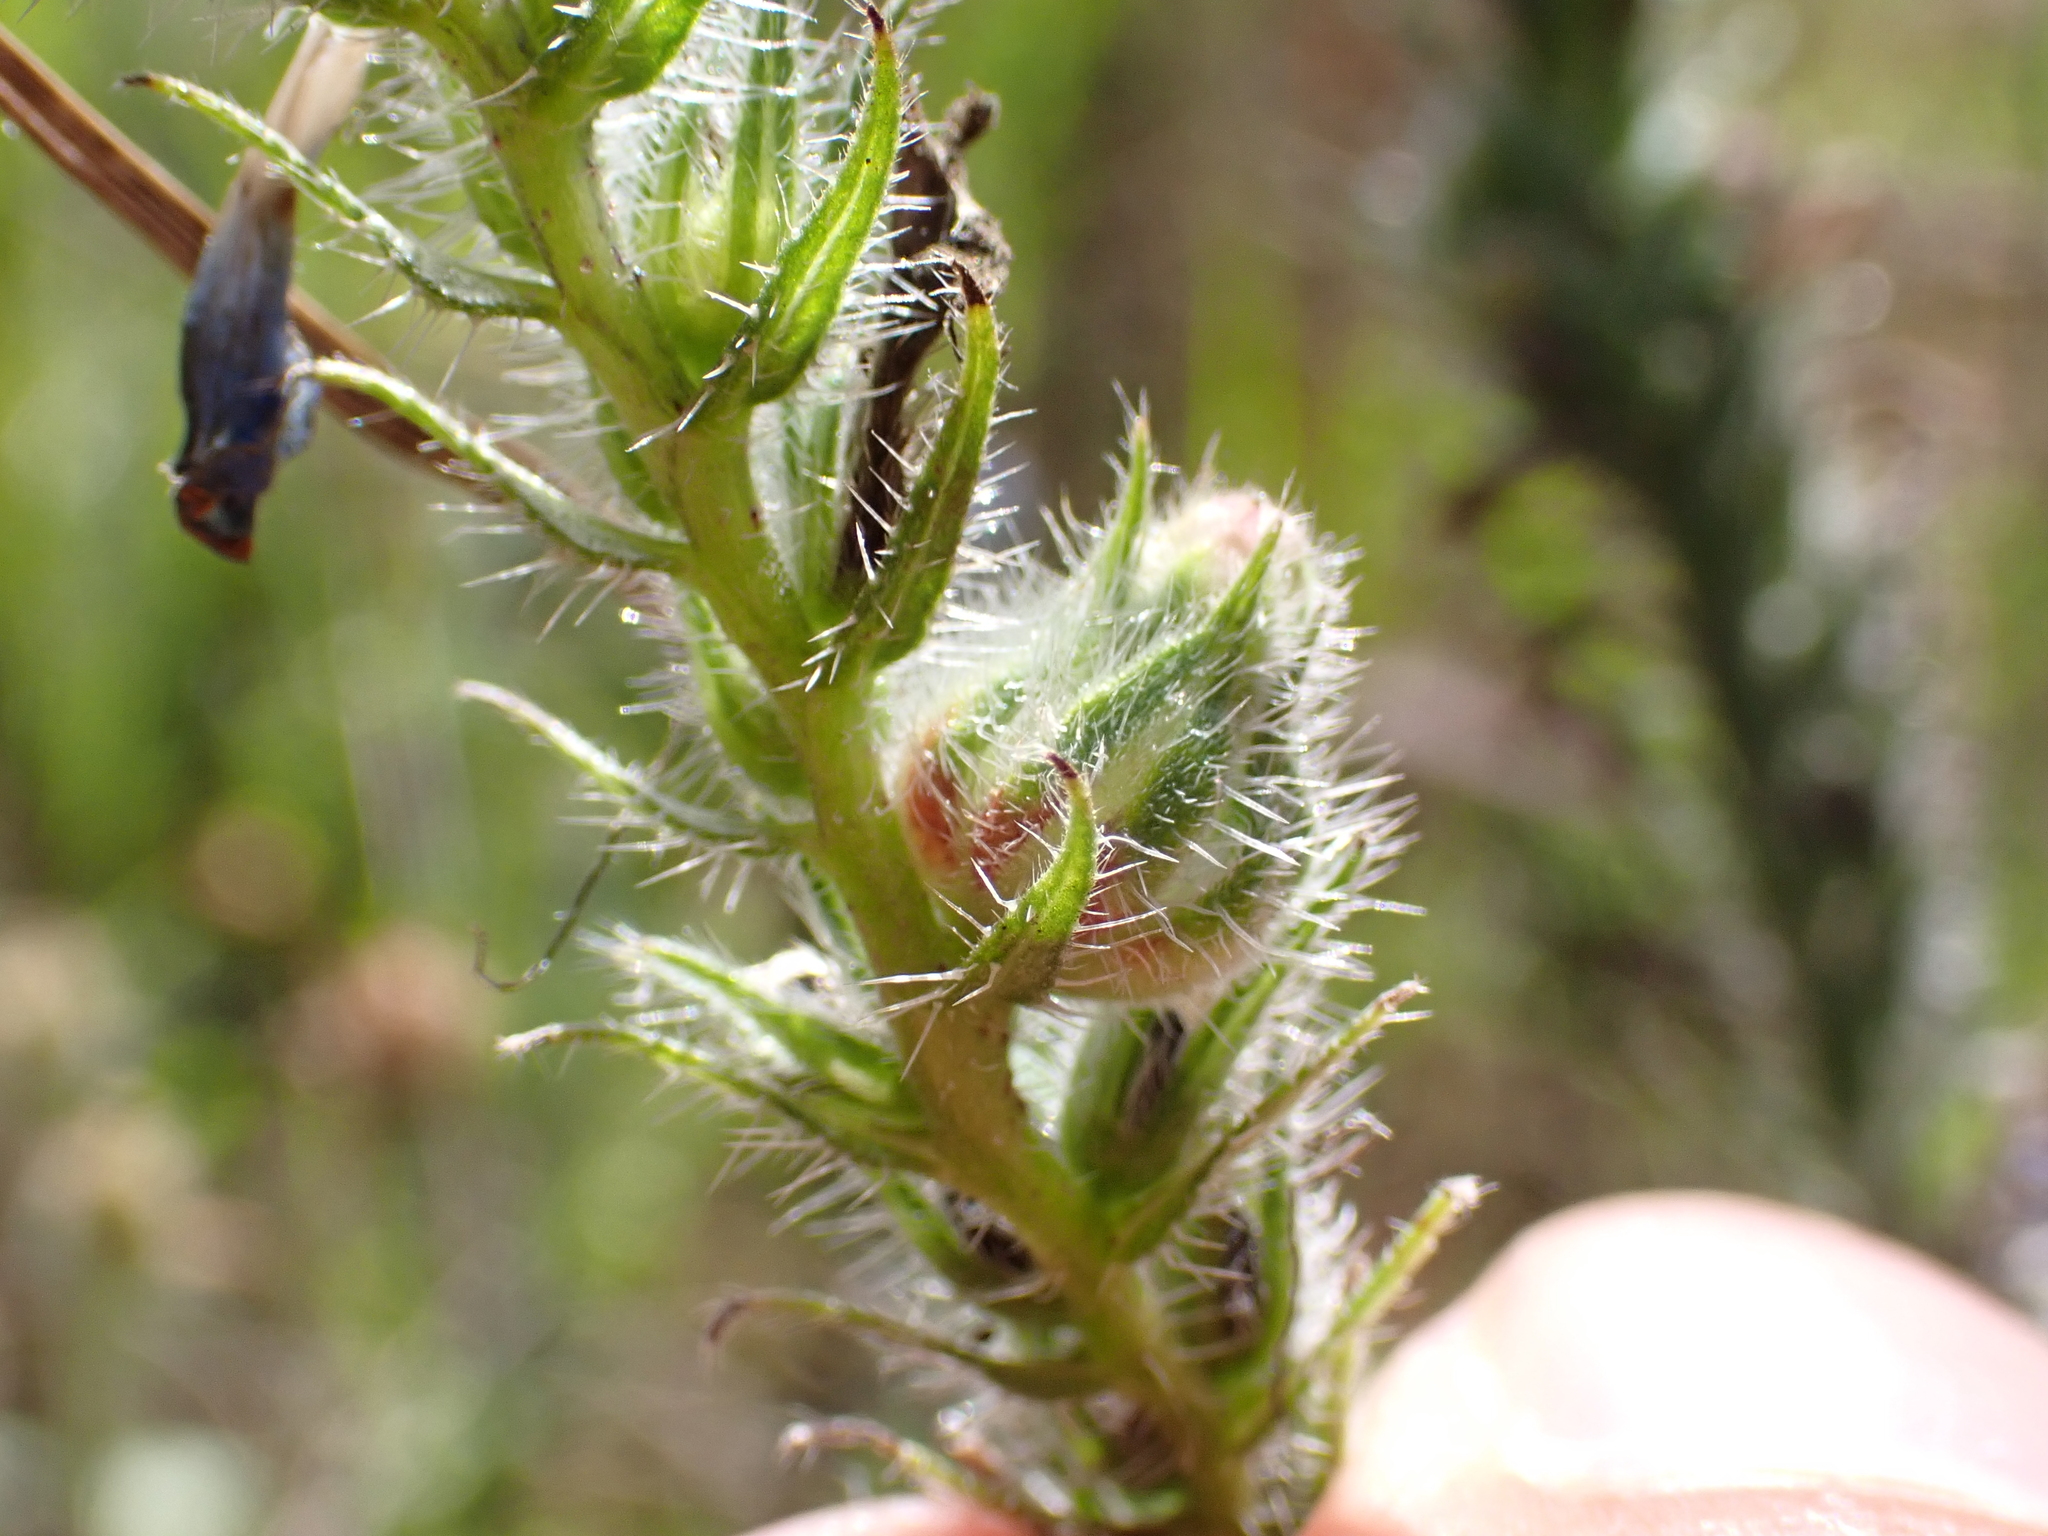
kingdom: Animalia
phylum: Arthropoda
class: Insecta
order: Diptera
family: Cecidomyiidae
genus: Asphondylia
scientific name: Asphondylia echii
